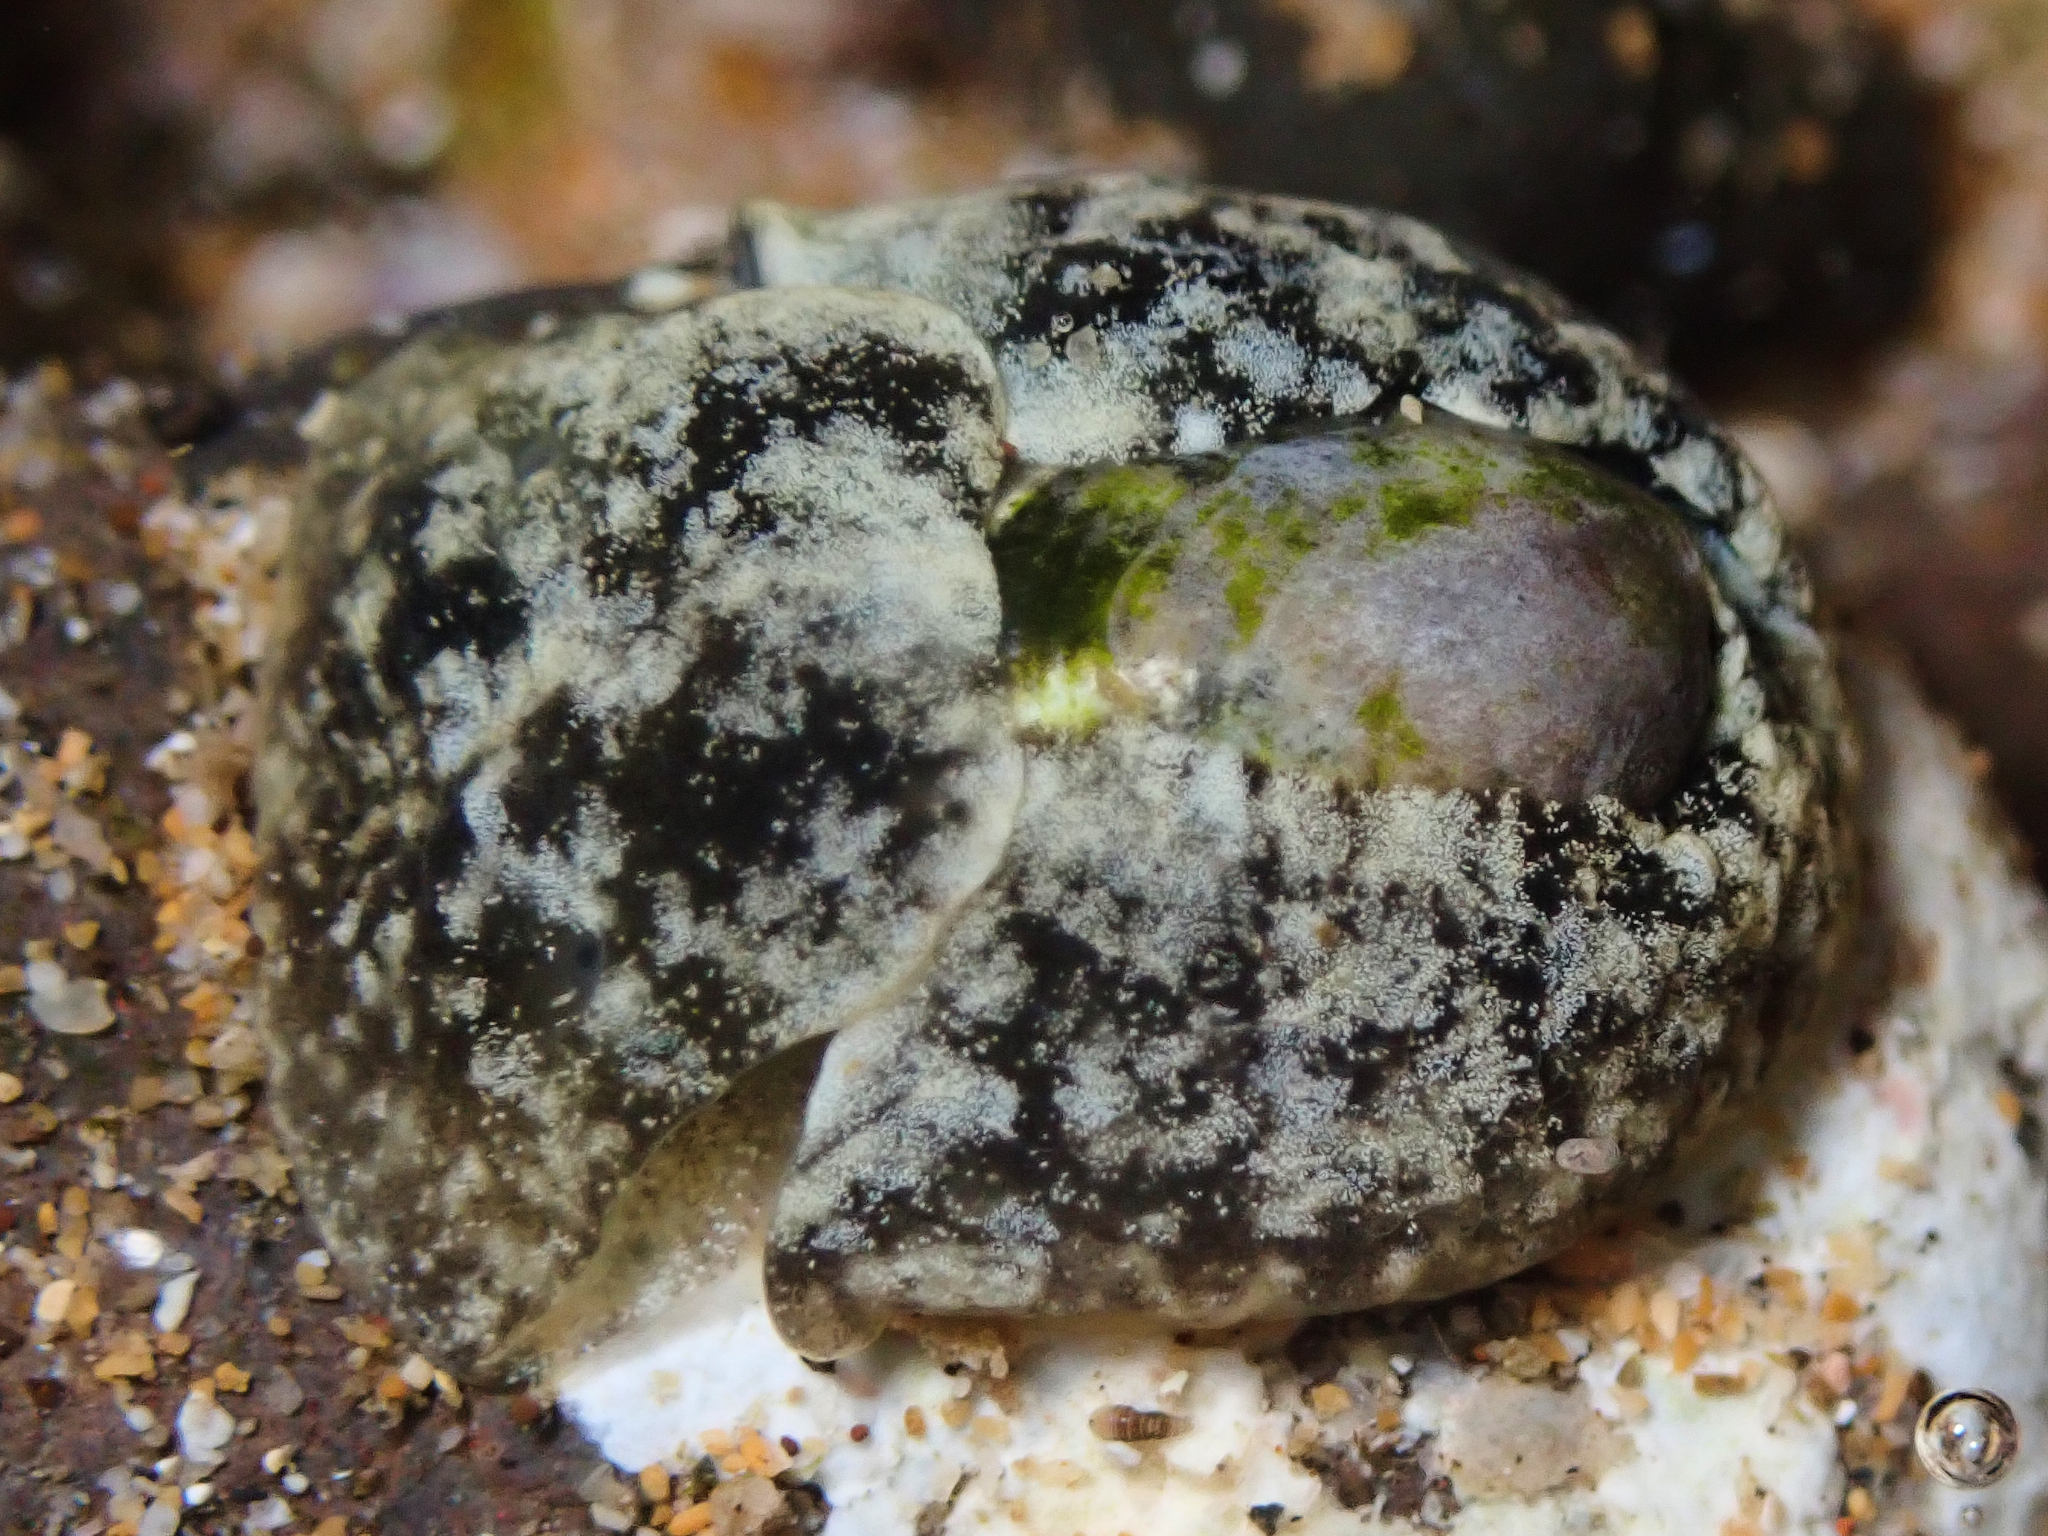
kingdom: Animalia
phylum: Mollusca
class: Gastropoda
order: Cephalaspidea
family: Haminoeidae
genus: Smaragdinella
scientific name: Smaragdinella calyculata
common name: Emerald bubble
